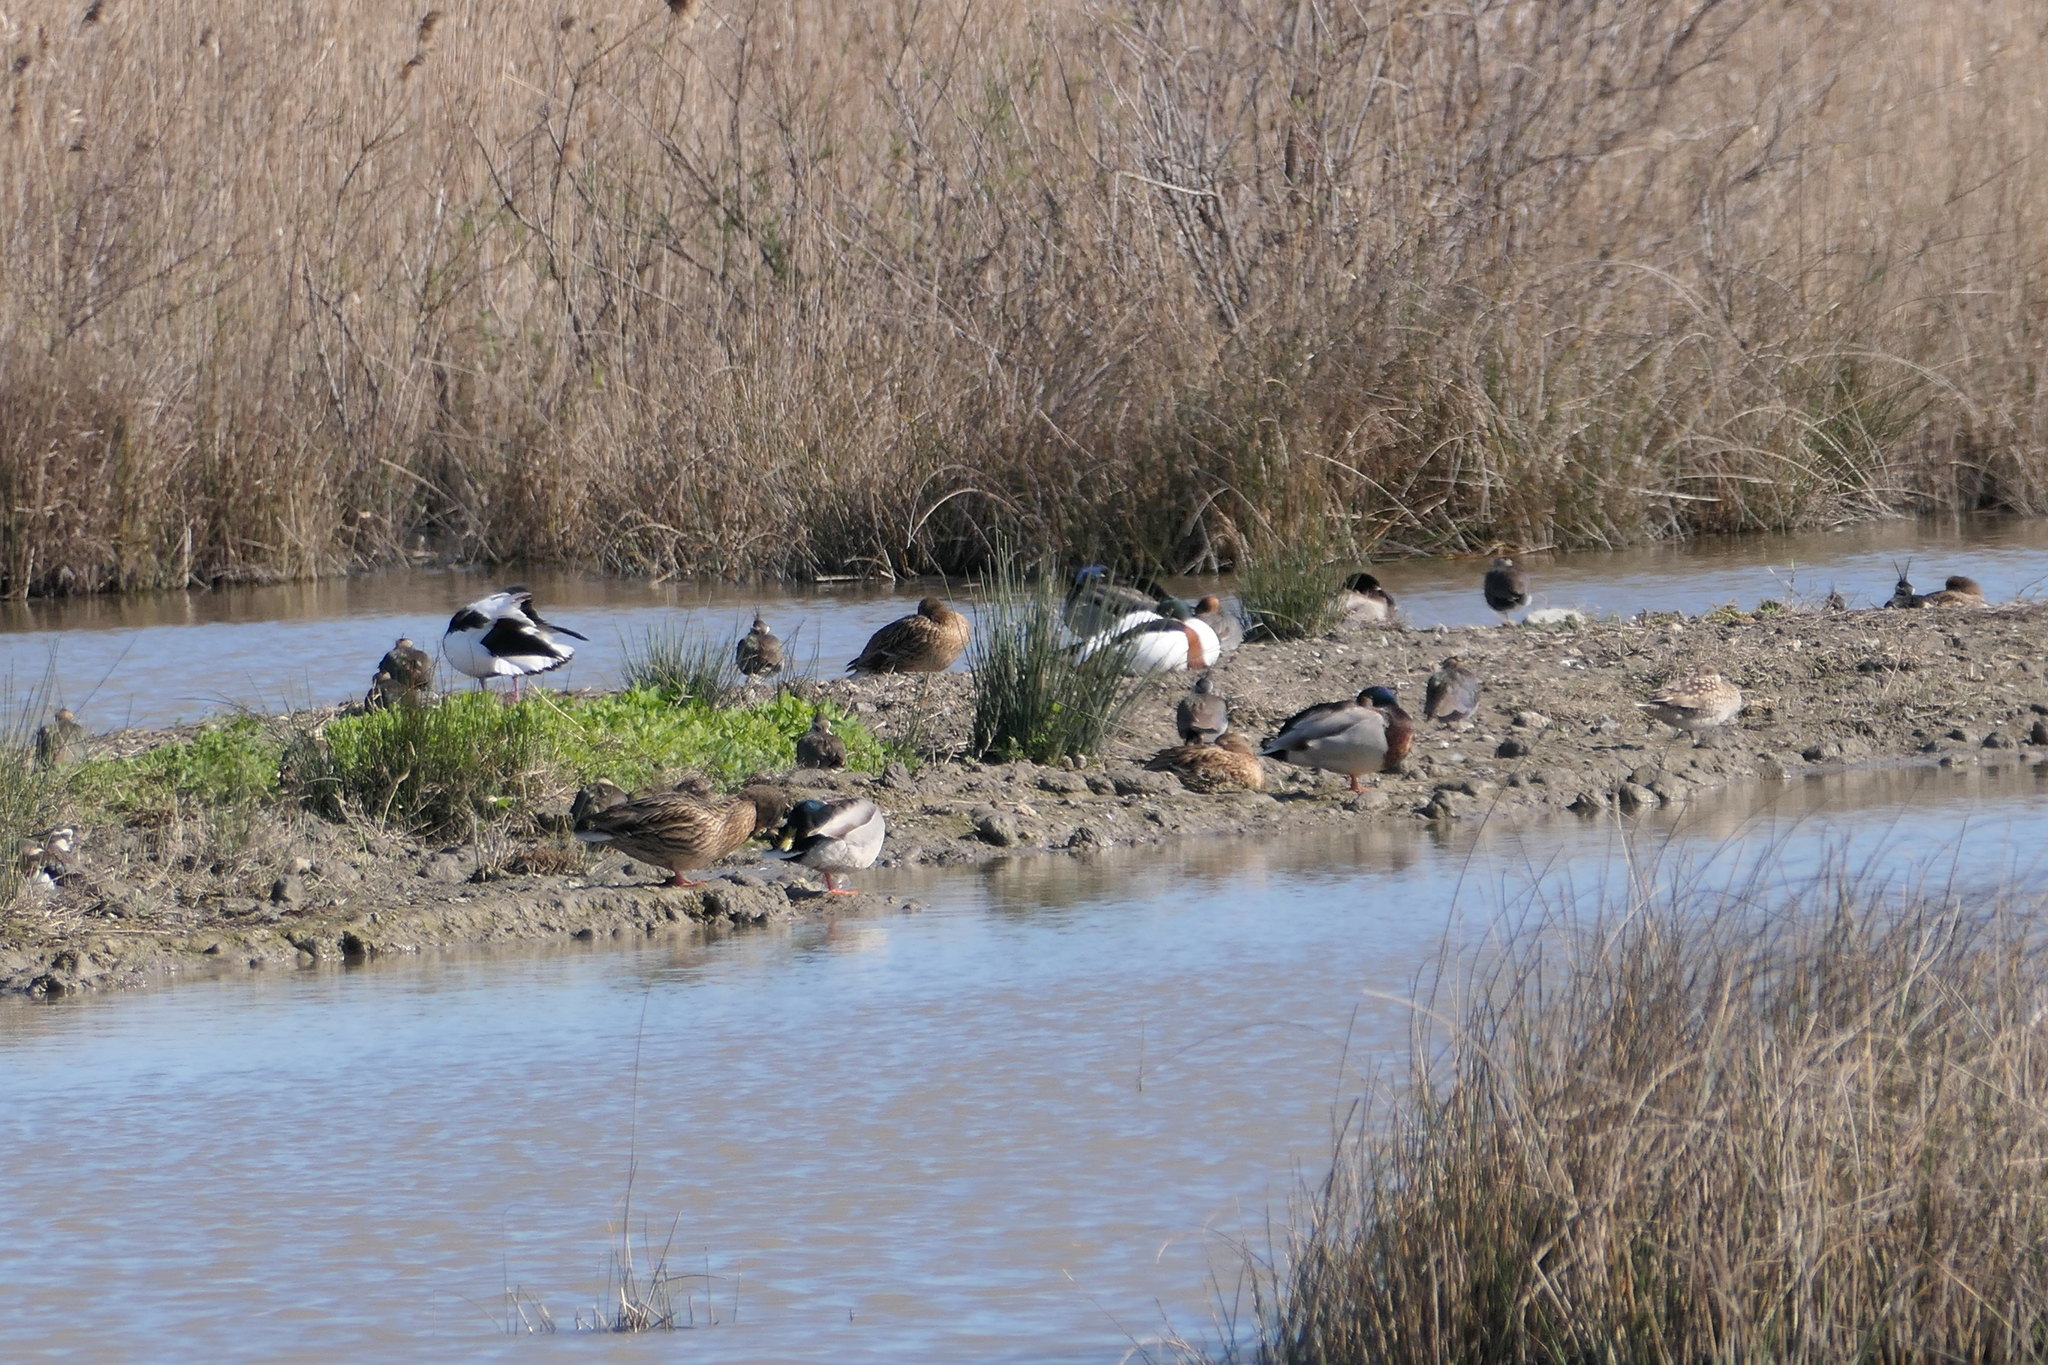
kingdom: Animalia
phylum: Chordata
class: Aves
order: Anseriformes
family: Anatidae
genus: Tadorna
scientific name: Tadorna tadorna
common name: Common shelduck
